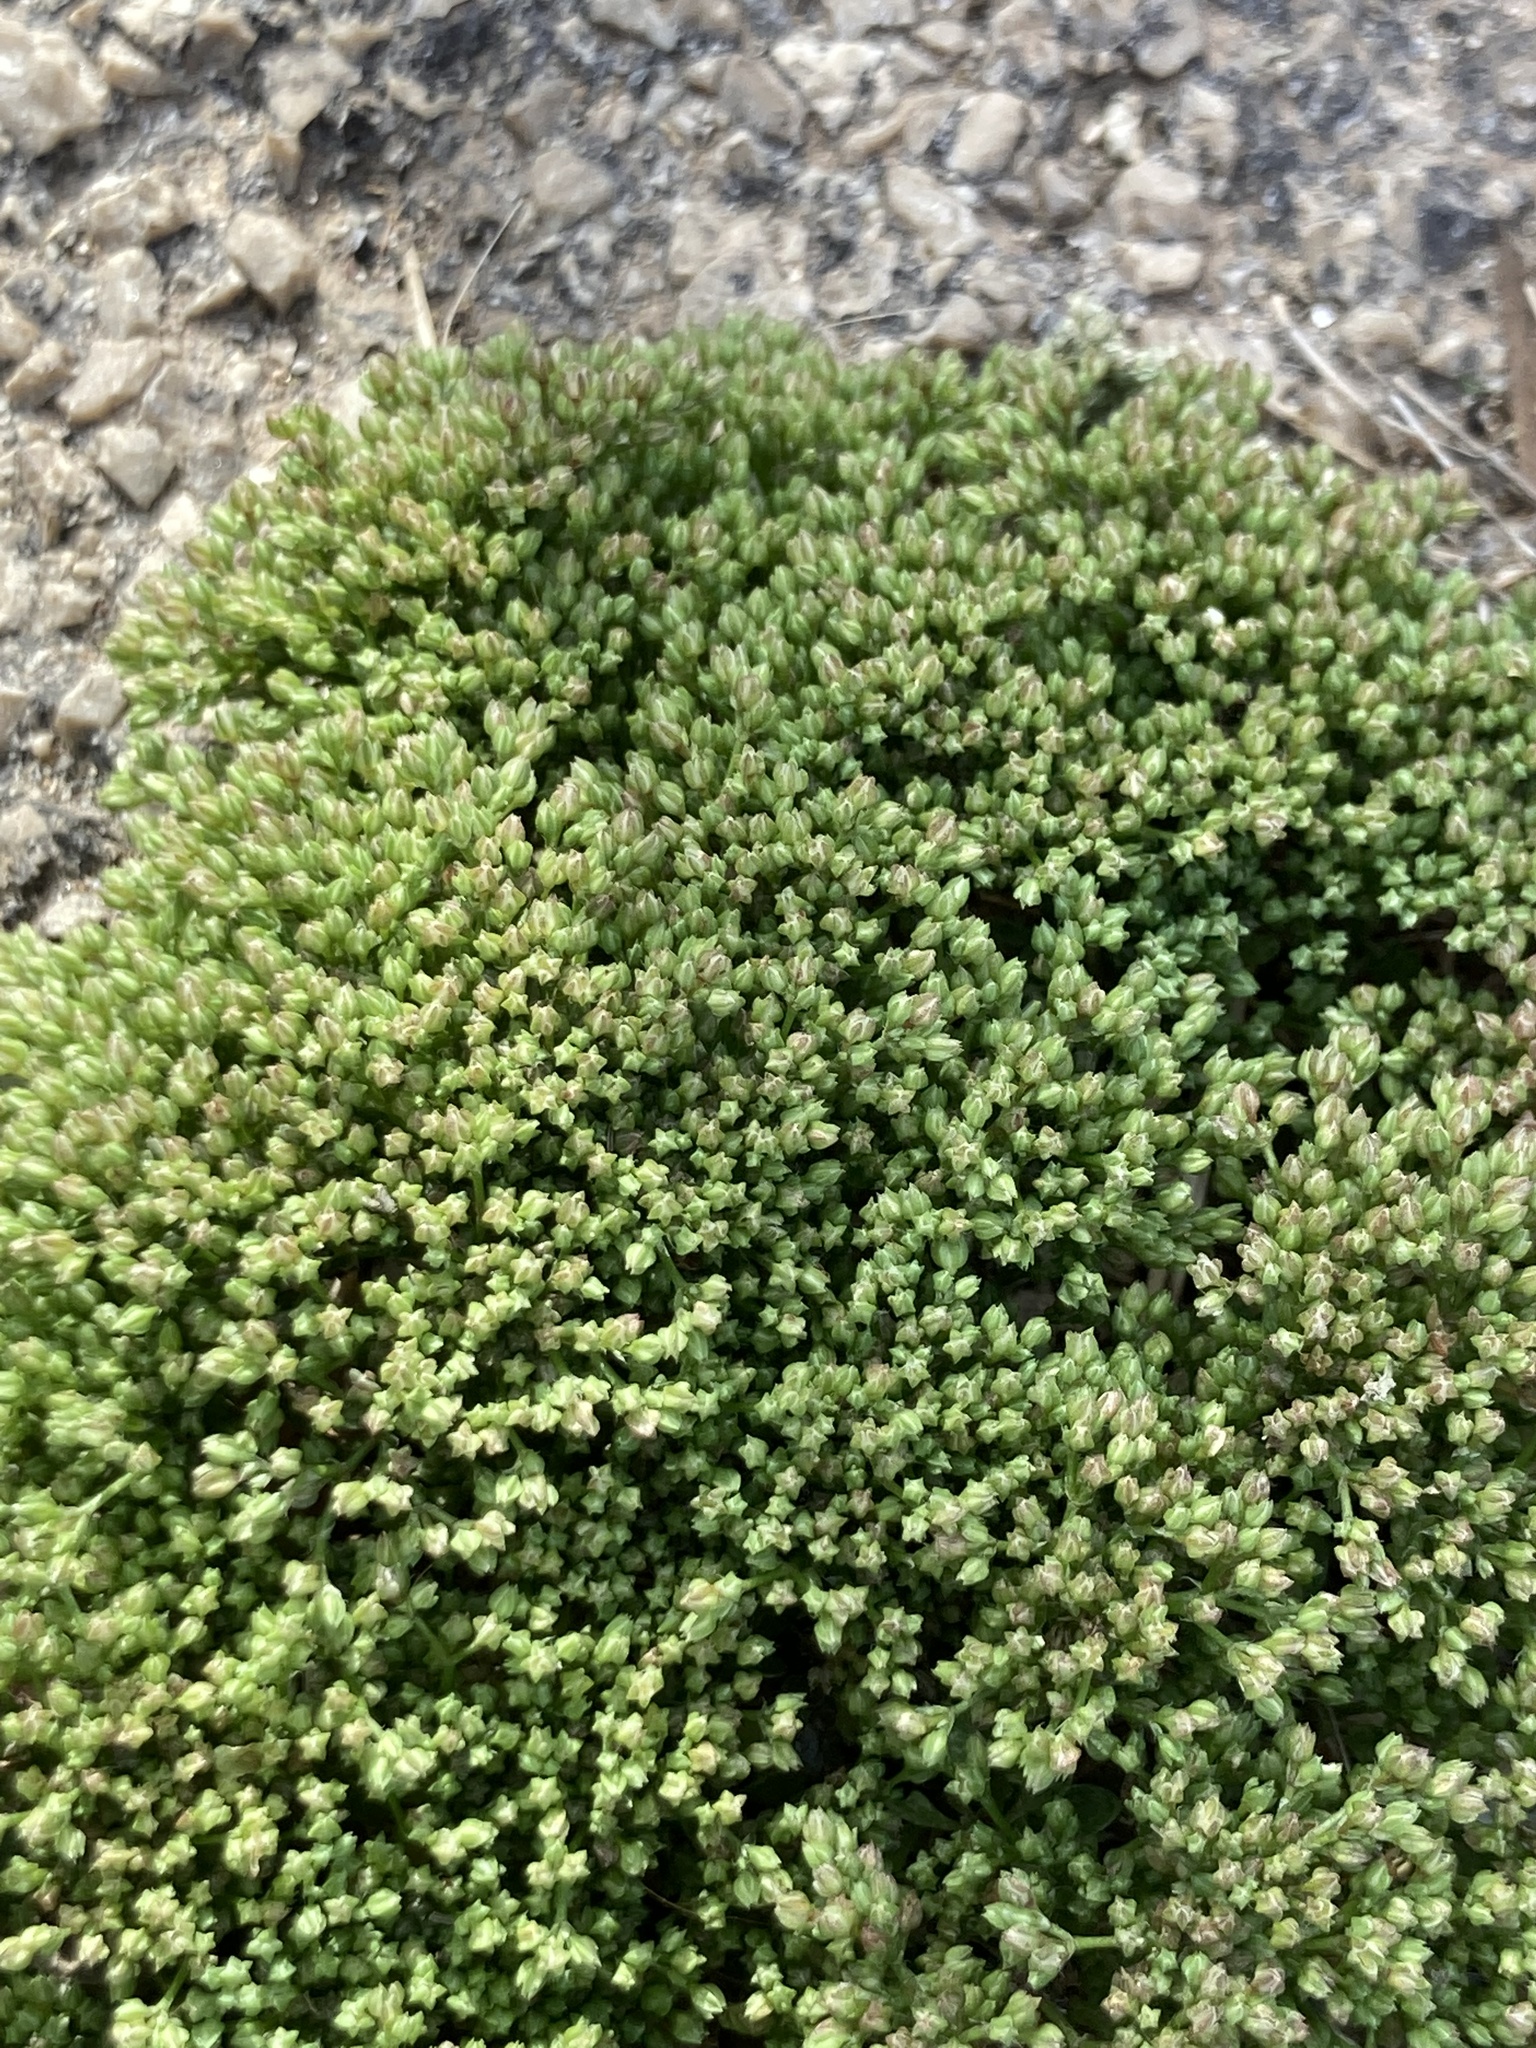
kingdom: Plantae
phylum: Tracheophyta
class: Magnoliopsida
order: Caryophyllales
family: Caryophyllaceae
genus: Polycarpon
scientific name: Polycarpon tetraphyllum
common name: Four-leaved all-seed
